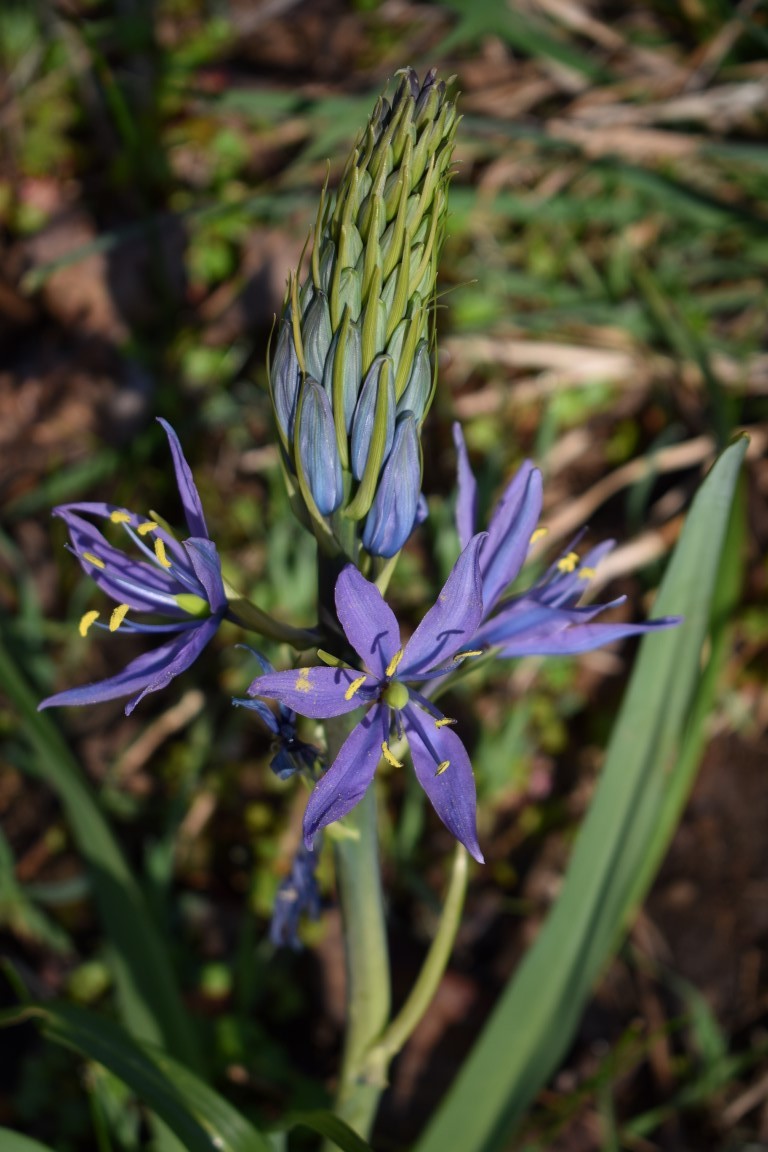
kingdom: Plantae
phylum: Tracheophyta
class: Liliopsida
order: Asparagales
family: Asparagaceae
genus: Camassia
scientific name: Camassia leichtlinii
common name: Leichtlin's camas
